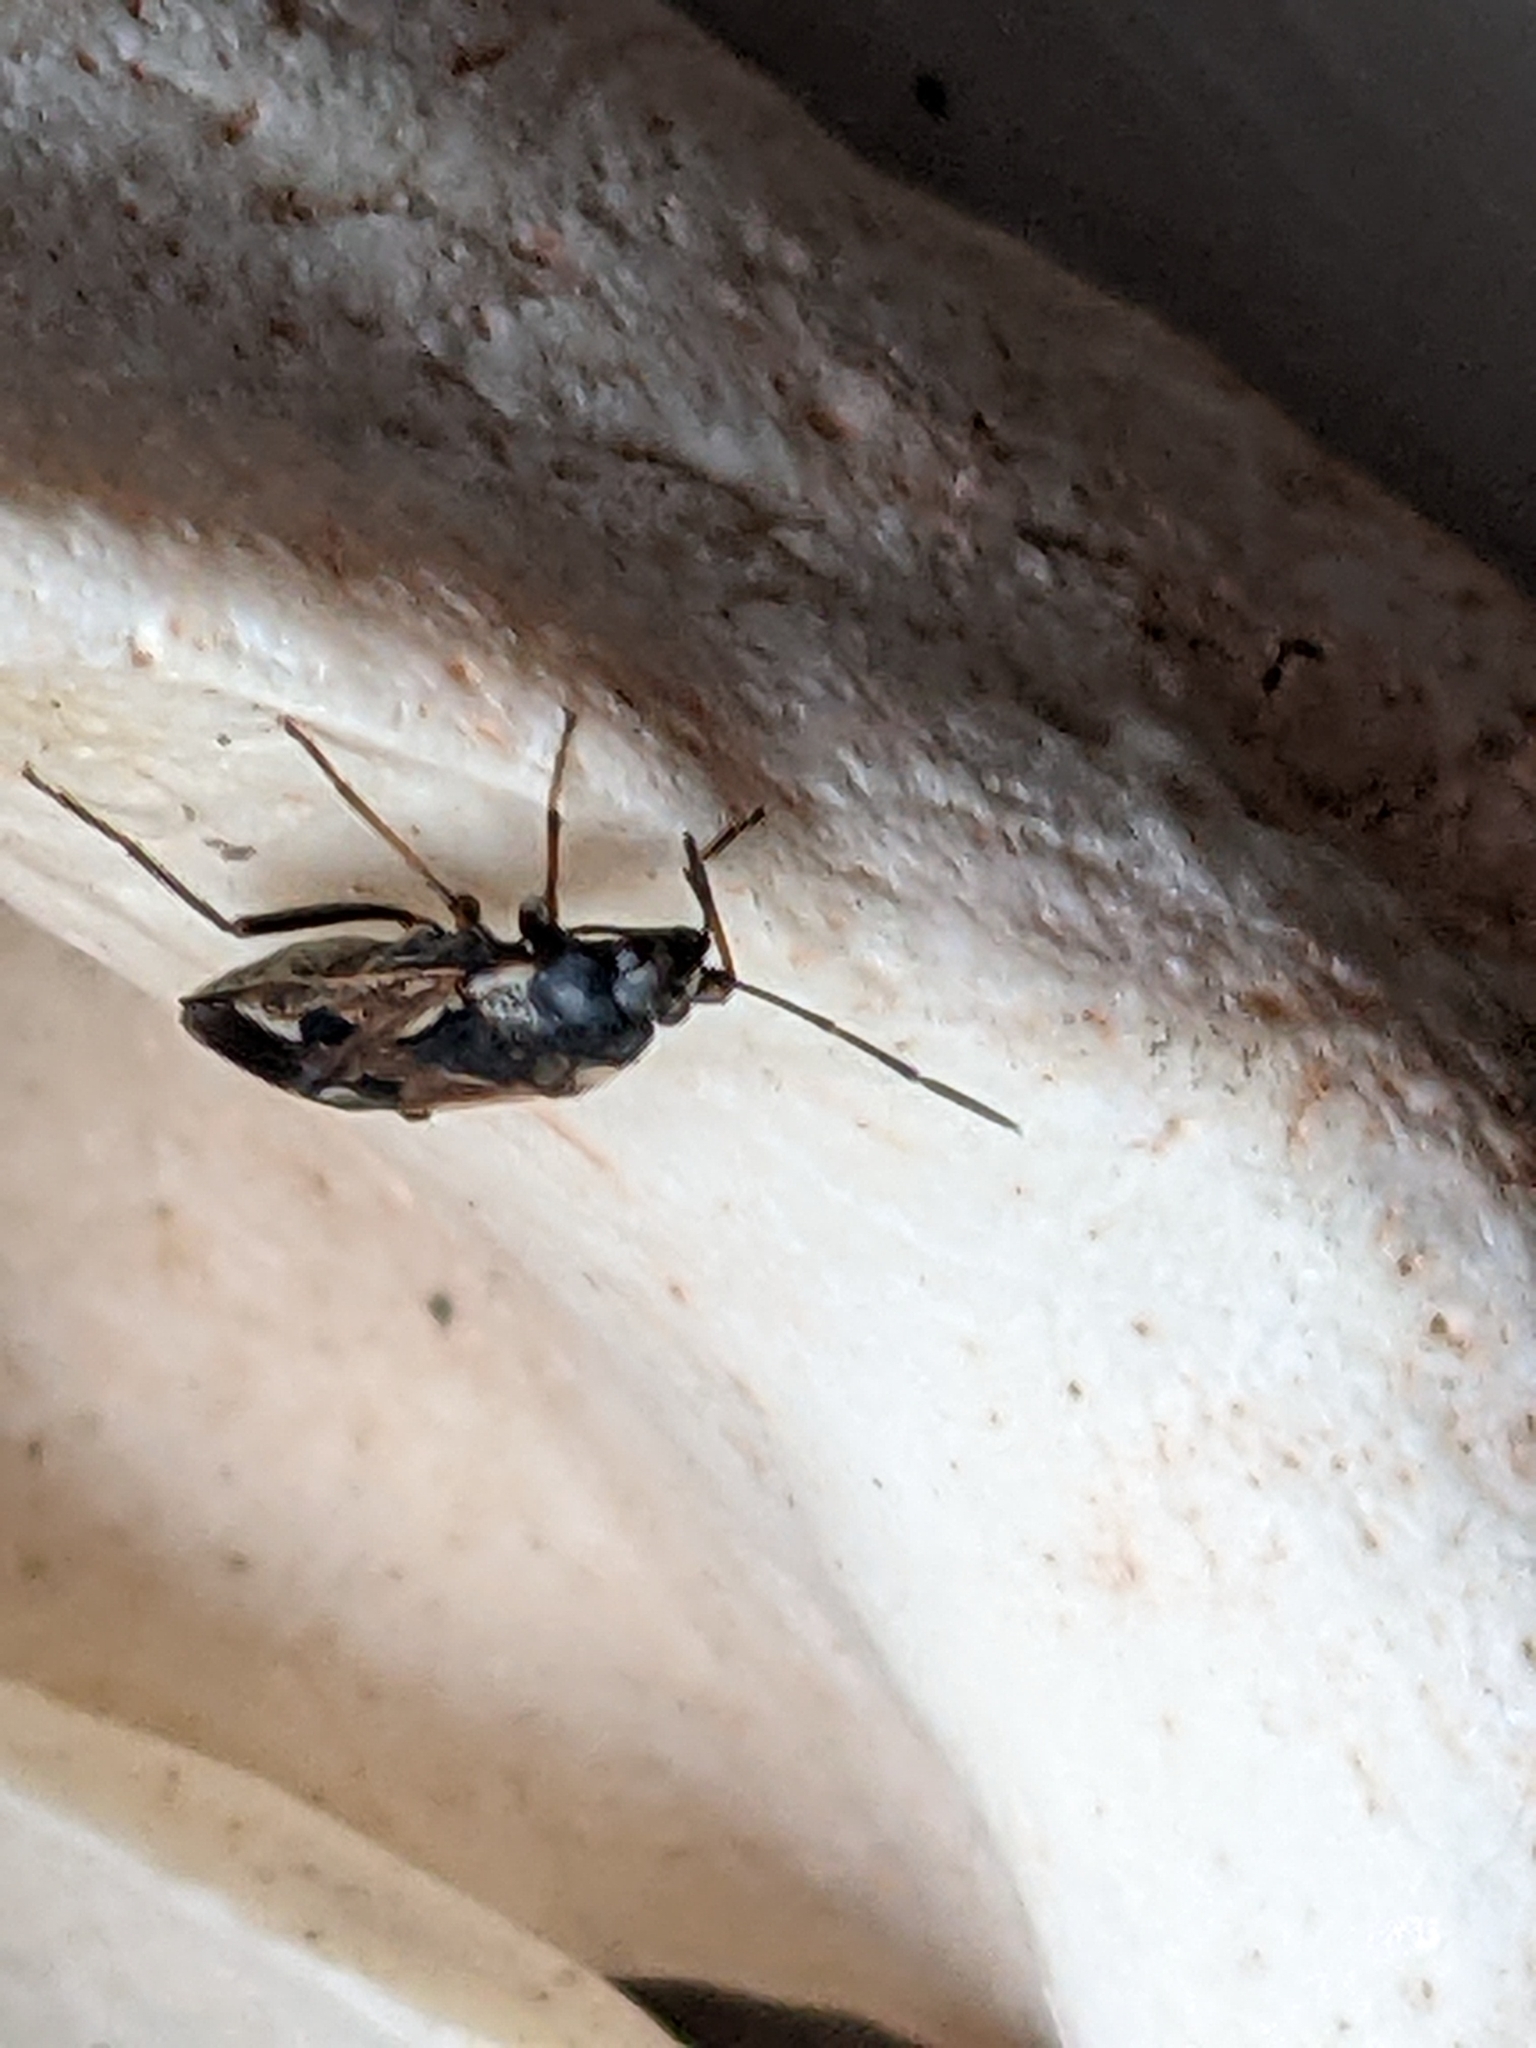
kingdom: Animalia
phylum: Arthropoda
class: Insecta
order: Hemiptera
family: Rhyparochromidae
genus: Rhyparochromus
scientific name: Rhyparochromus vulgaris
